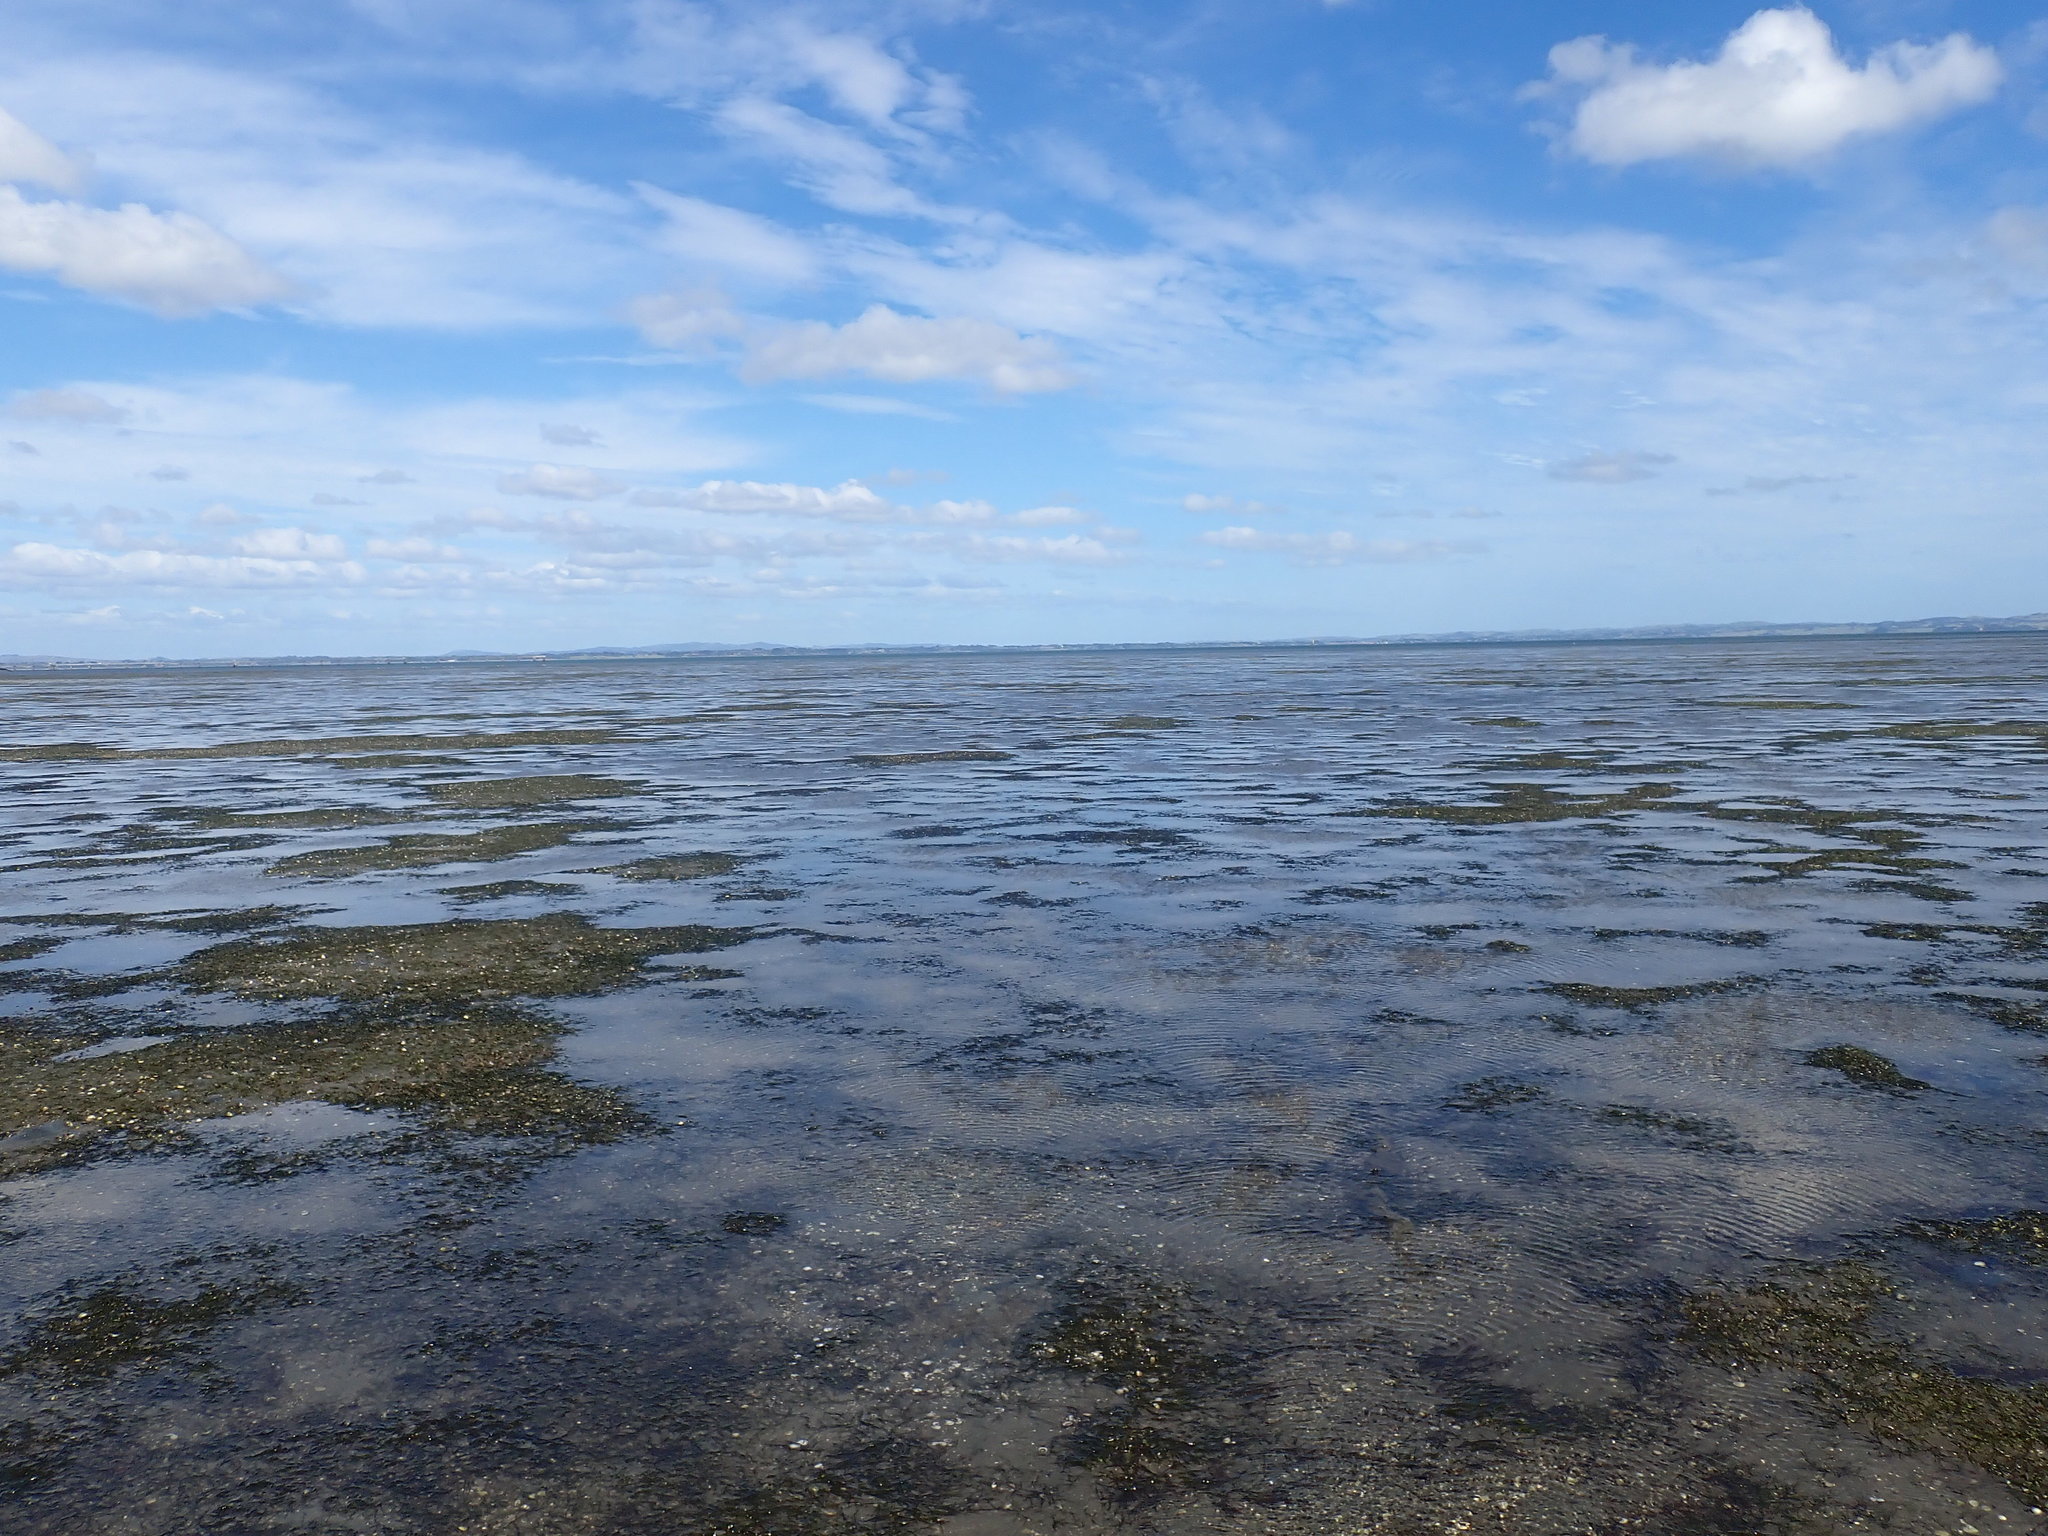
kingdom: Plantae
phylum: Tracheophyta
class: Liliopsida
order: Alismatales
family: Zosteraceae
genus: Zostera
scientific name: Zostera novazelandica
